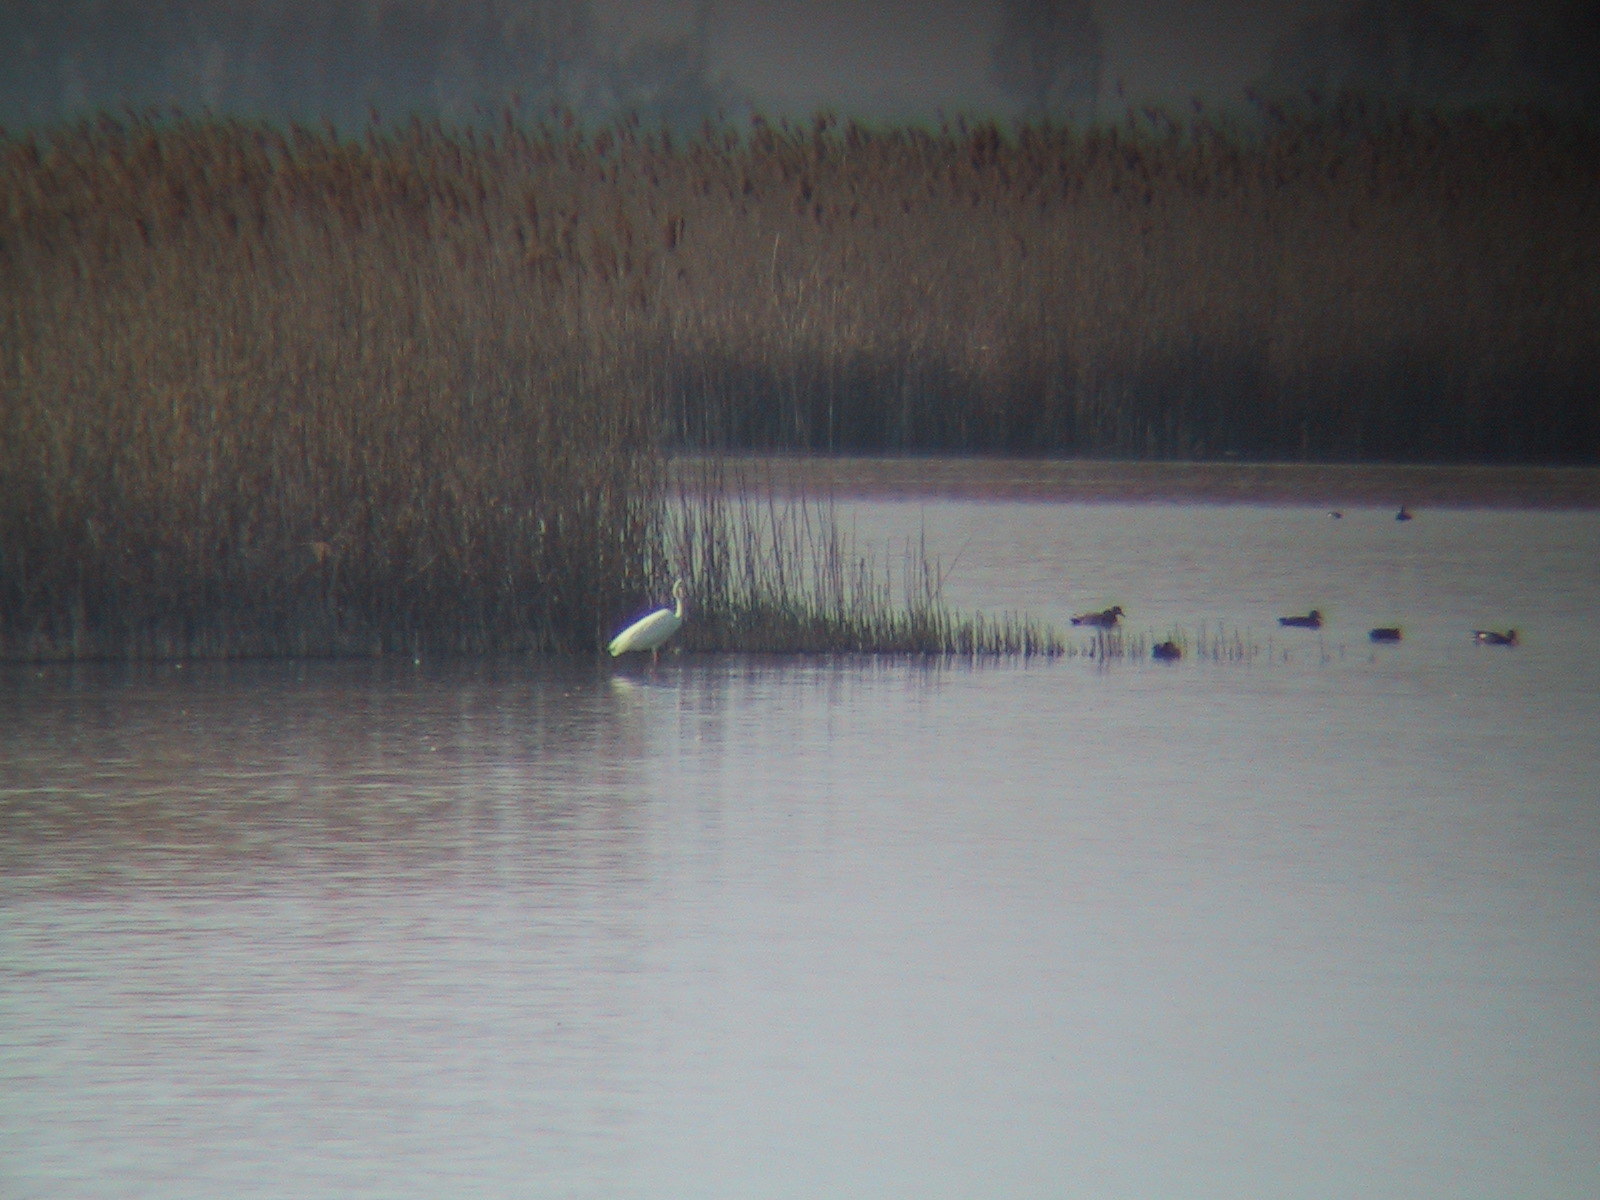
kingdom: Animalia
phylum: Chordata
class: Aves
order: Pelecaniformes
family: Ardeidae
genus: Ardea
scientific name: Ardea alba
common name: Great egret
